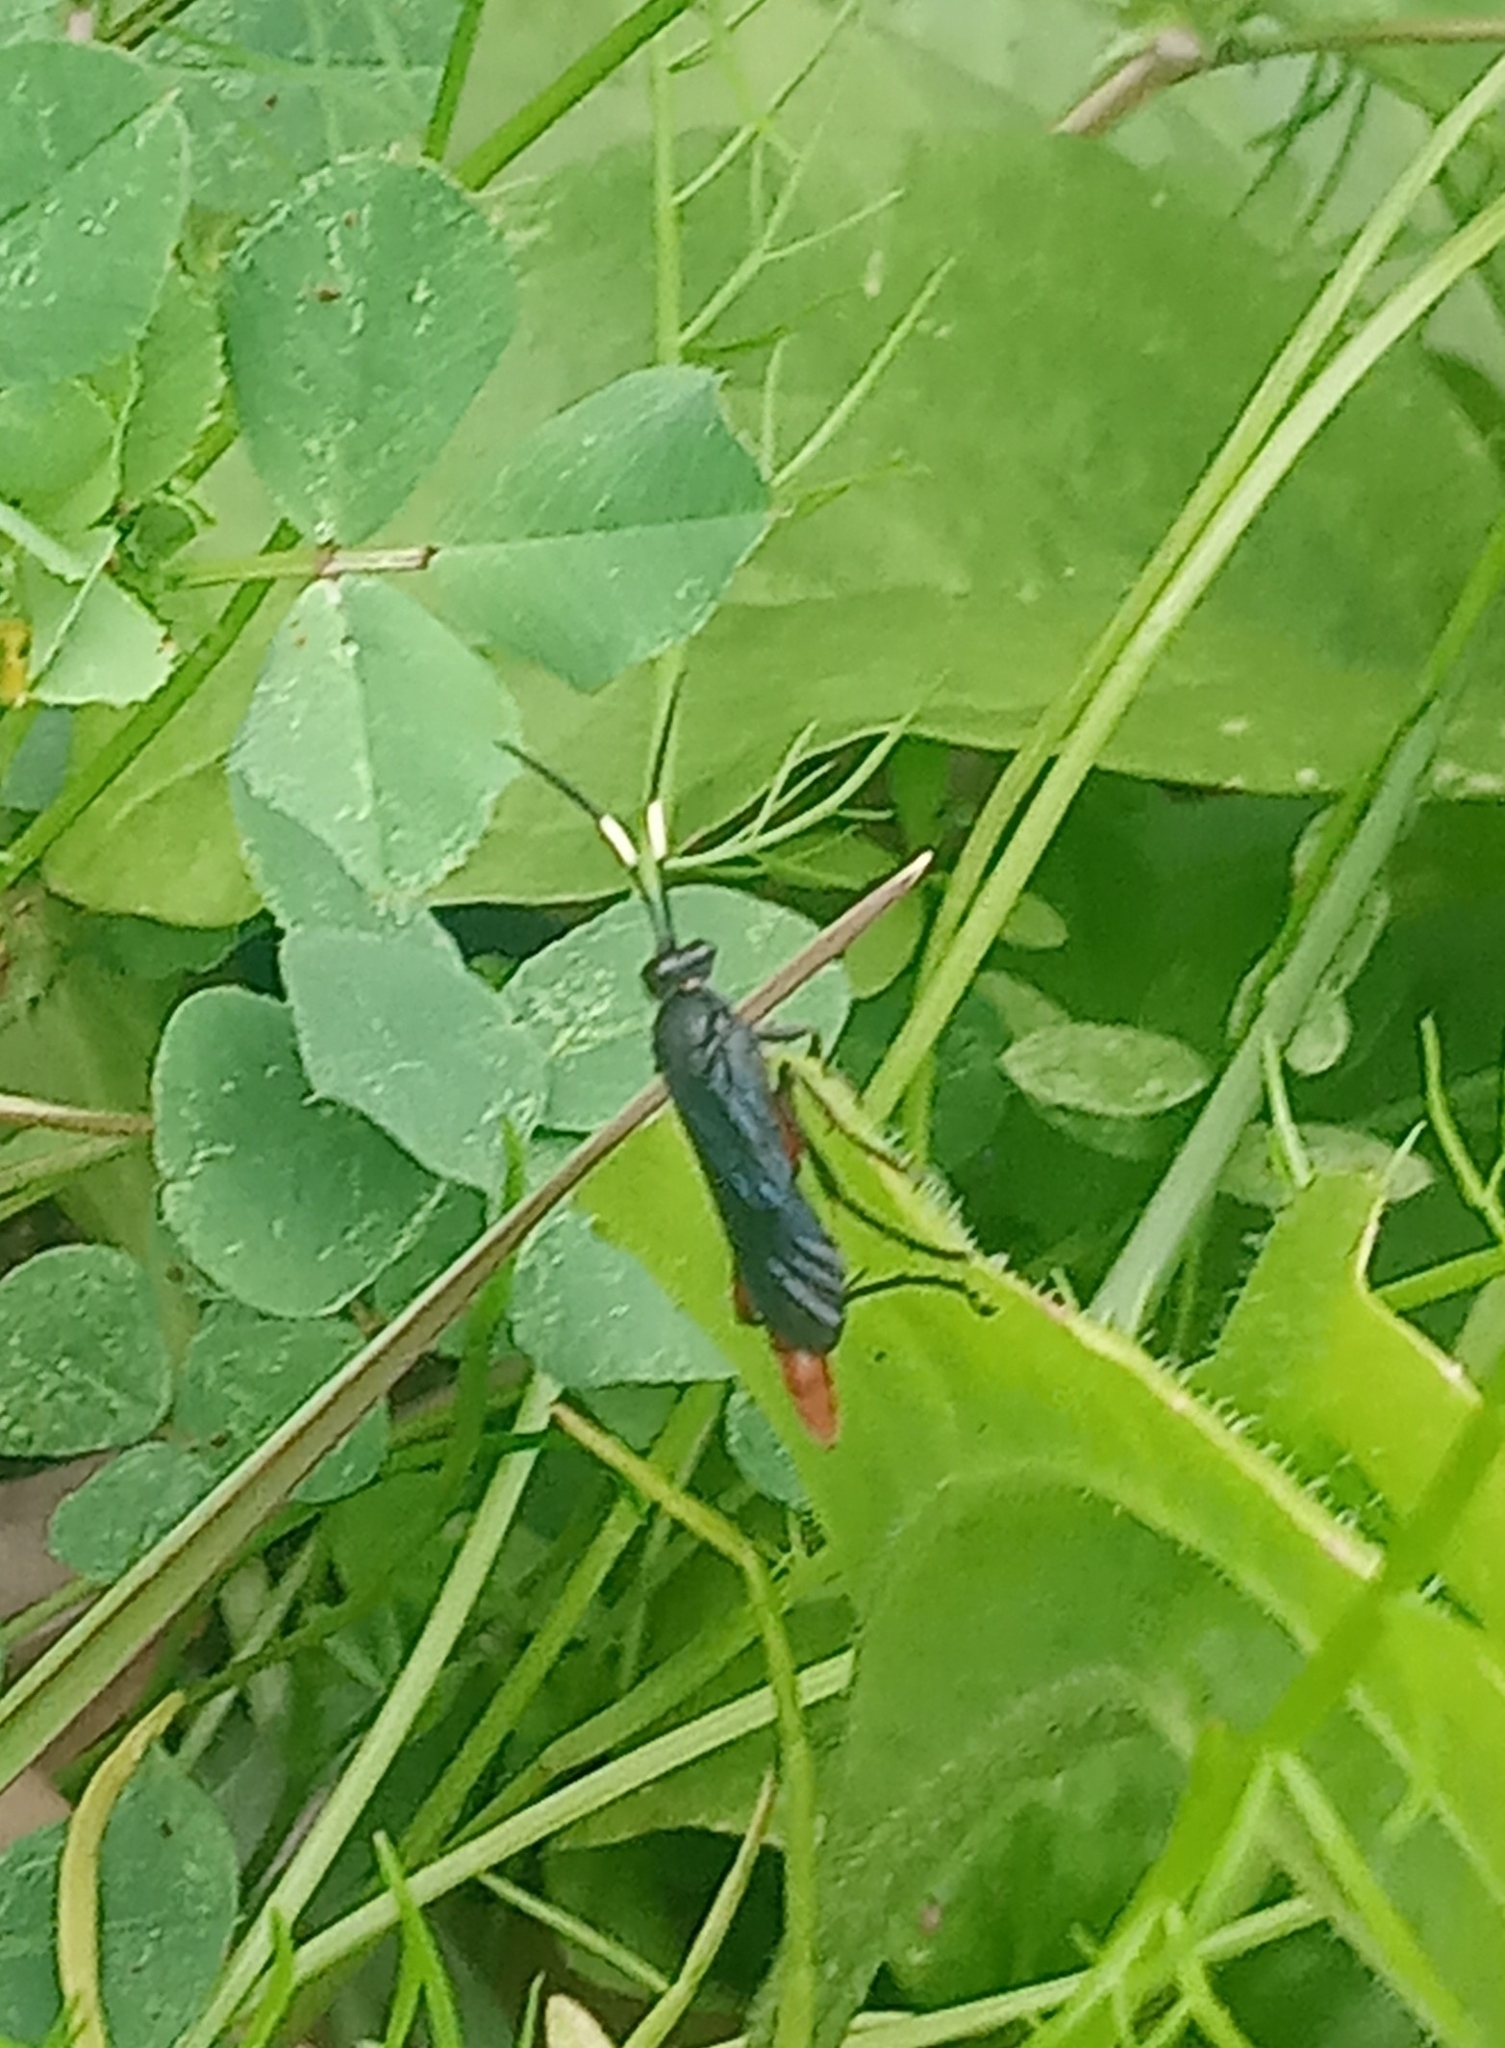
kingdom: Animalia
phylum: Arthropoda
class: Insecta
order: Hymenoptera
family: Ichneumonidae
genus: Limonethe
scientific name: Limonethe maurator
